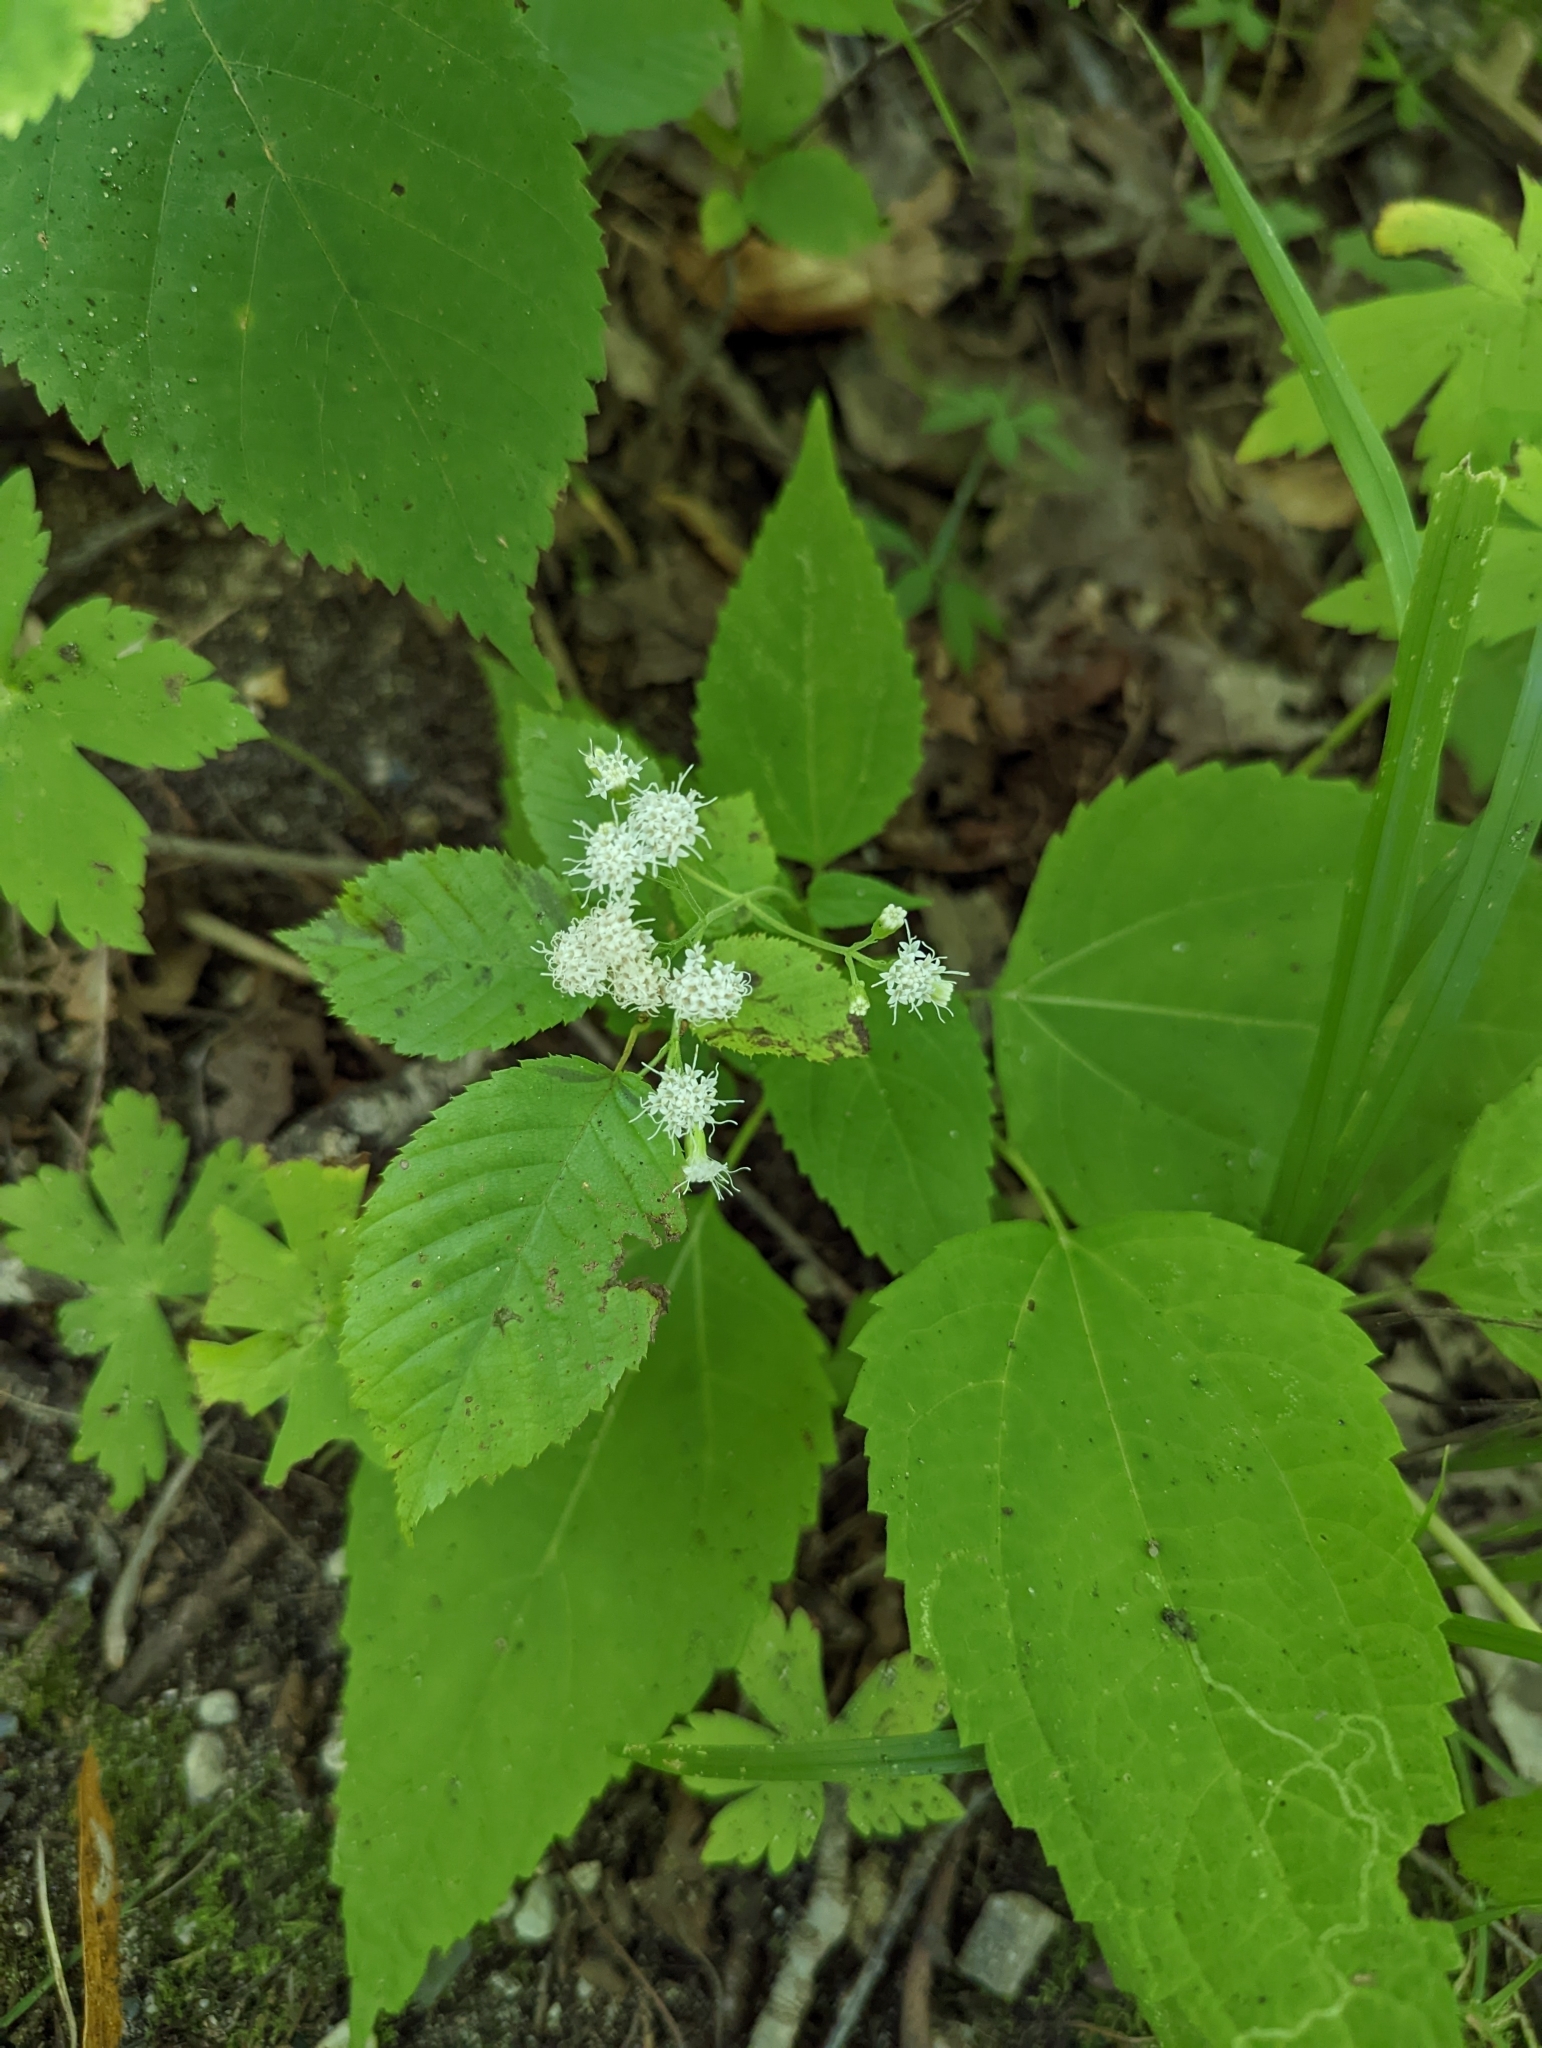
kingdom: Plantae
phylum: Tracheophyta
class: Magnoliopsida
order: Asterales
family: Asteraceae
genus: Ageratina
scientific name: Ageratina altissima
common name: White snakeroot
